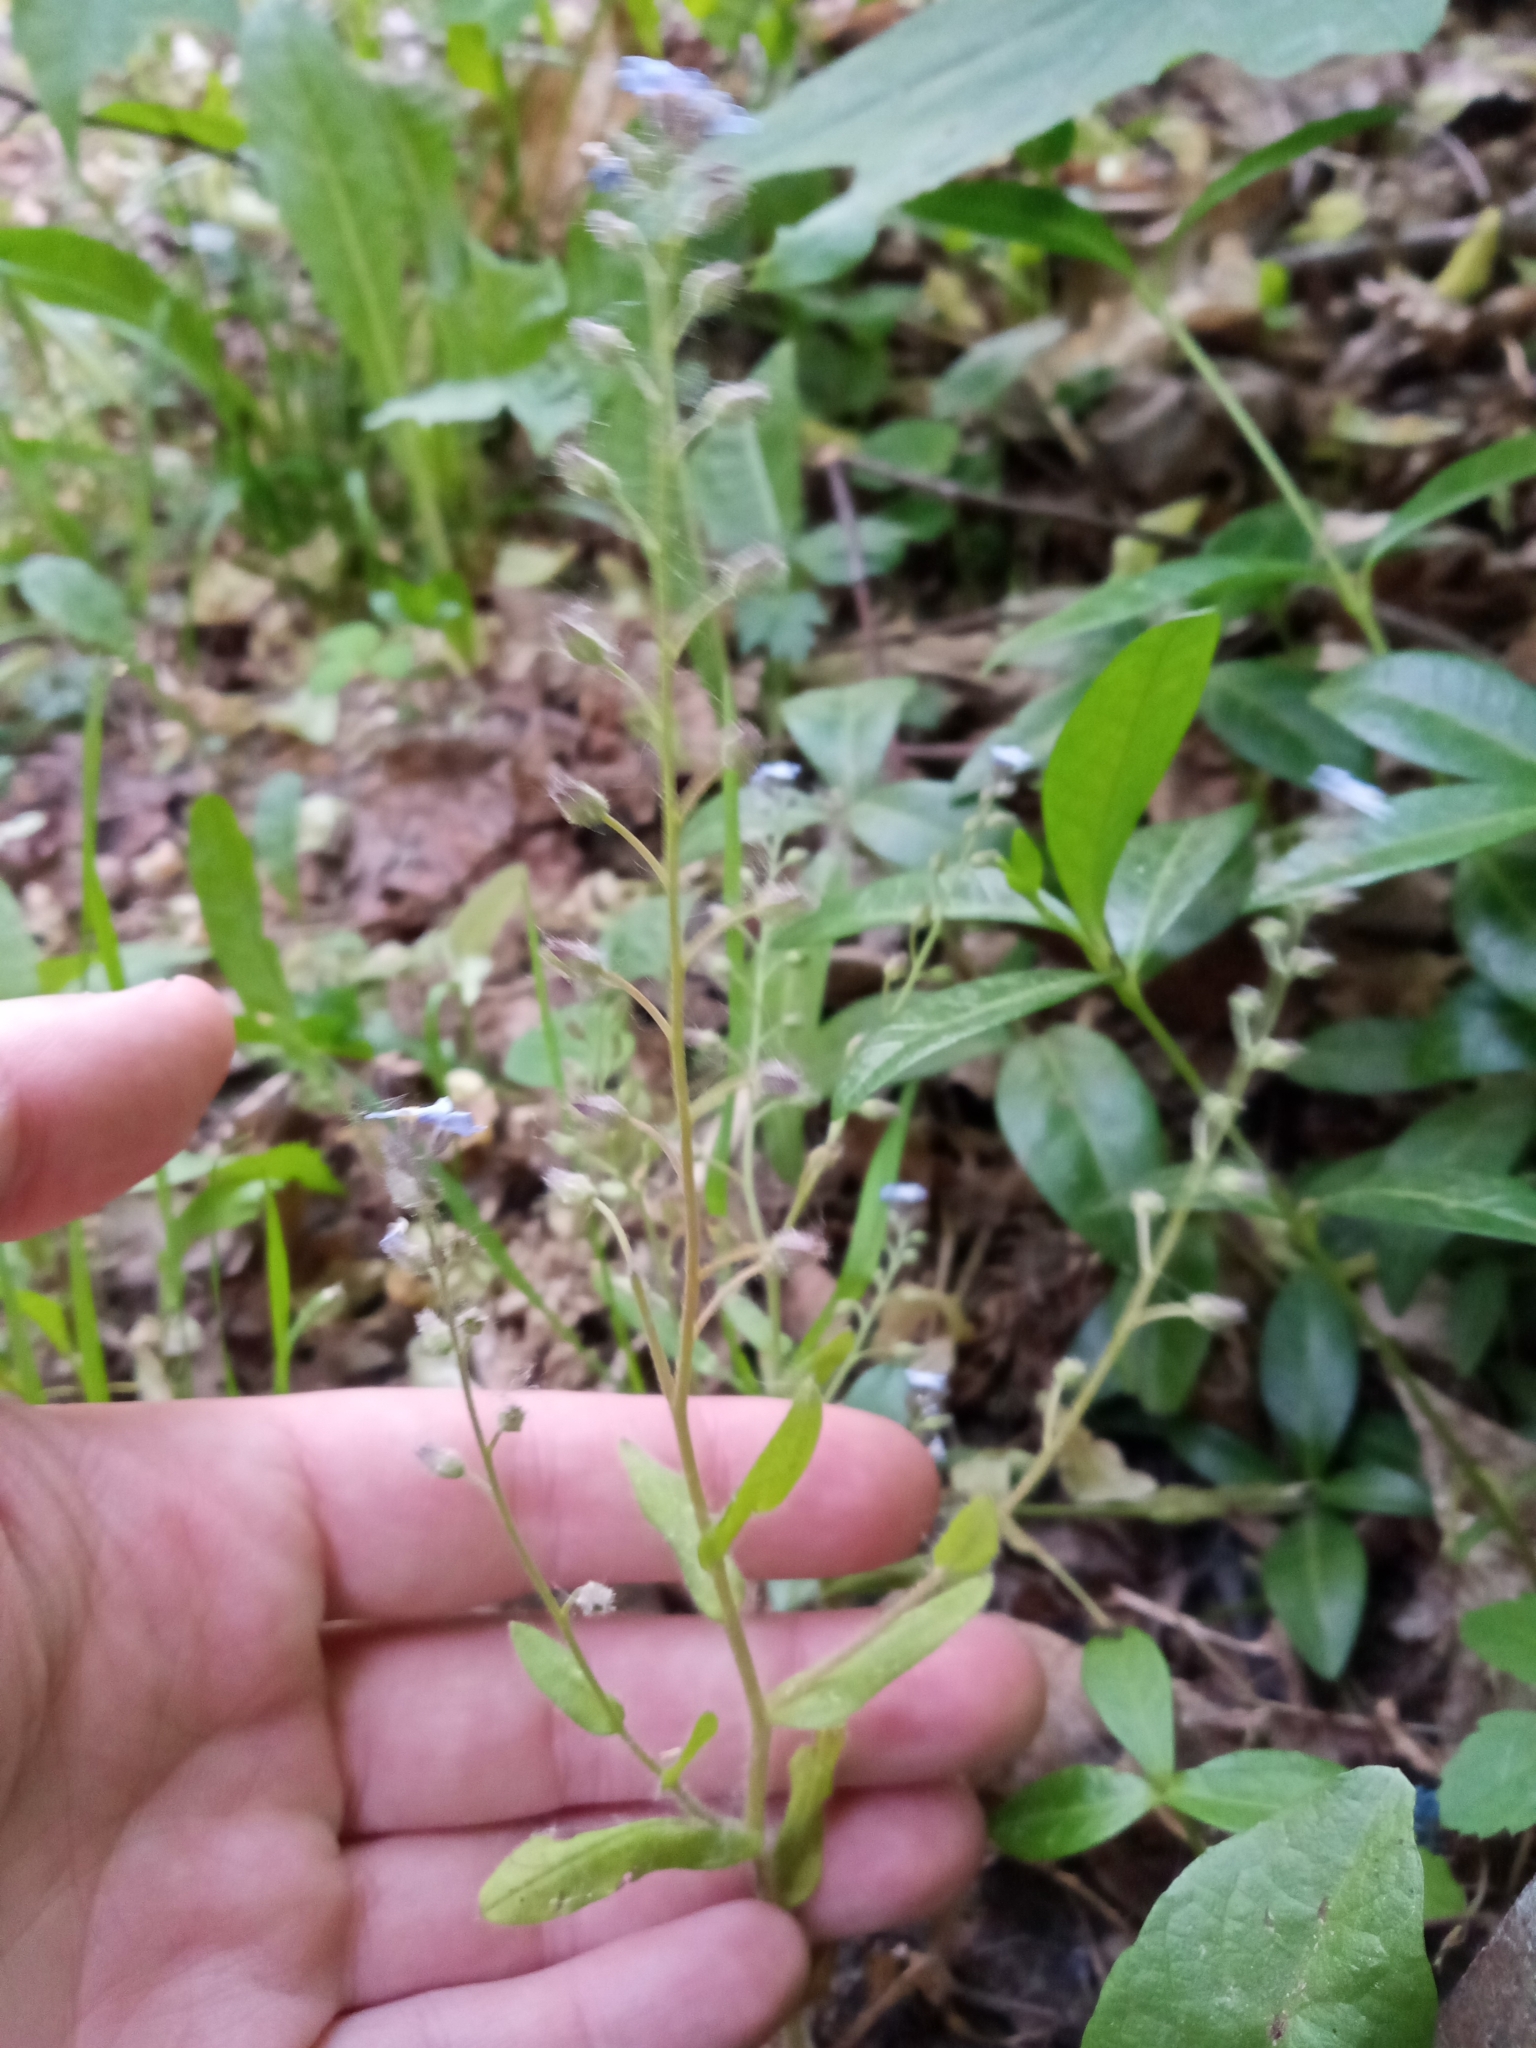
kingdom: Plantae
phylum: Tracheophyta
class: Magnoliopsida
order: Boraginales
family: Boraginaceae
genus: Myosotis
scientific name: Myosotis arvensis
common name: Field forget-me-not
